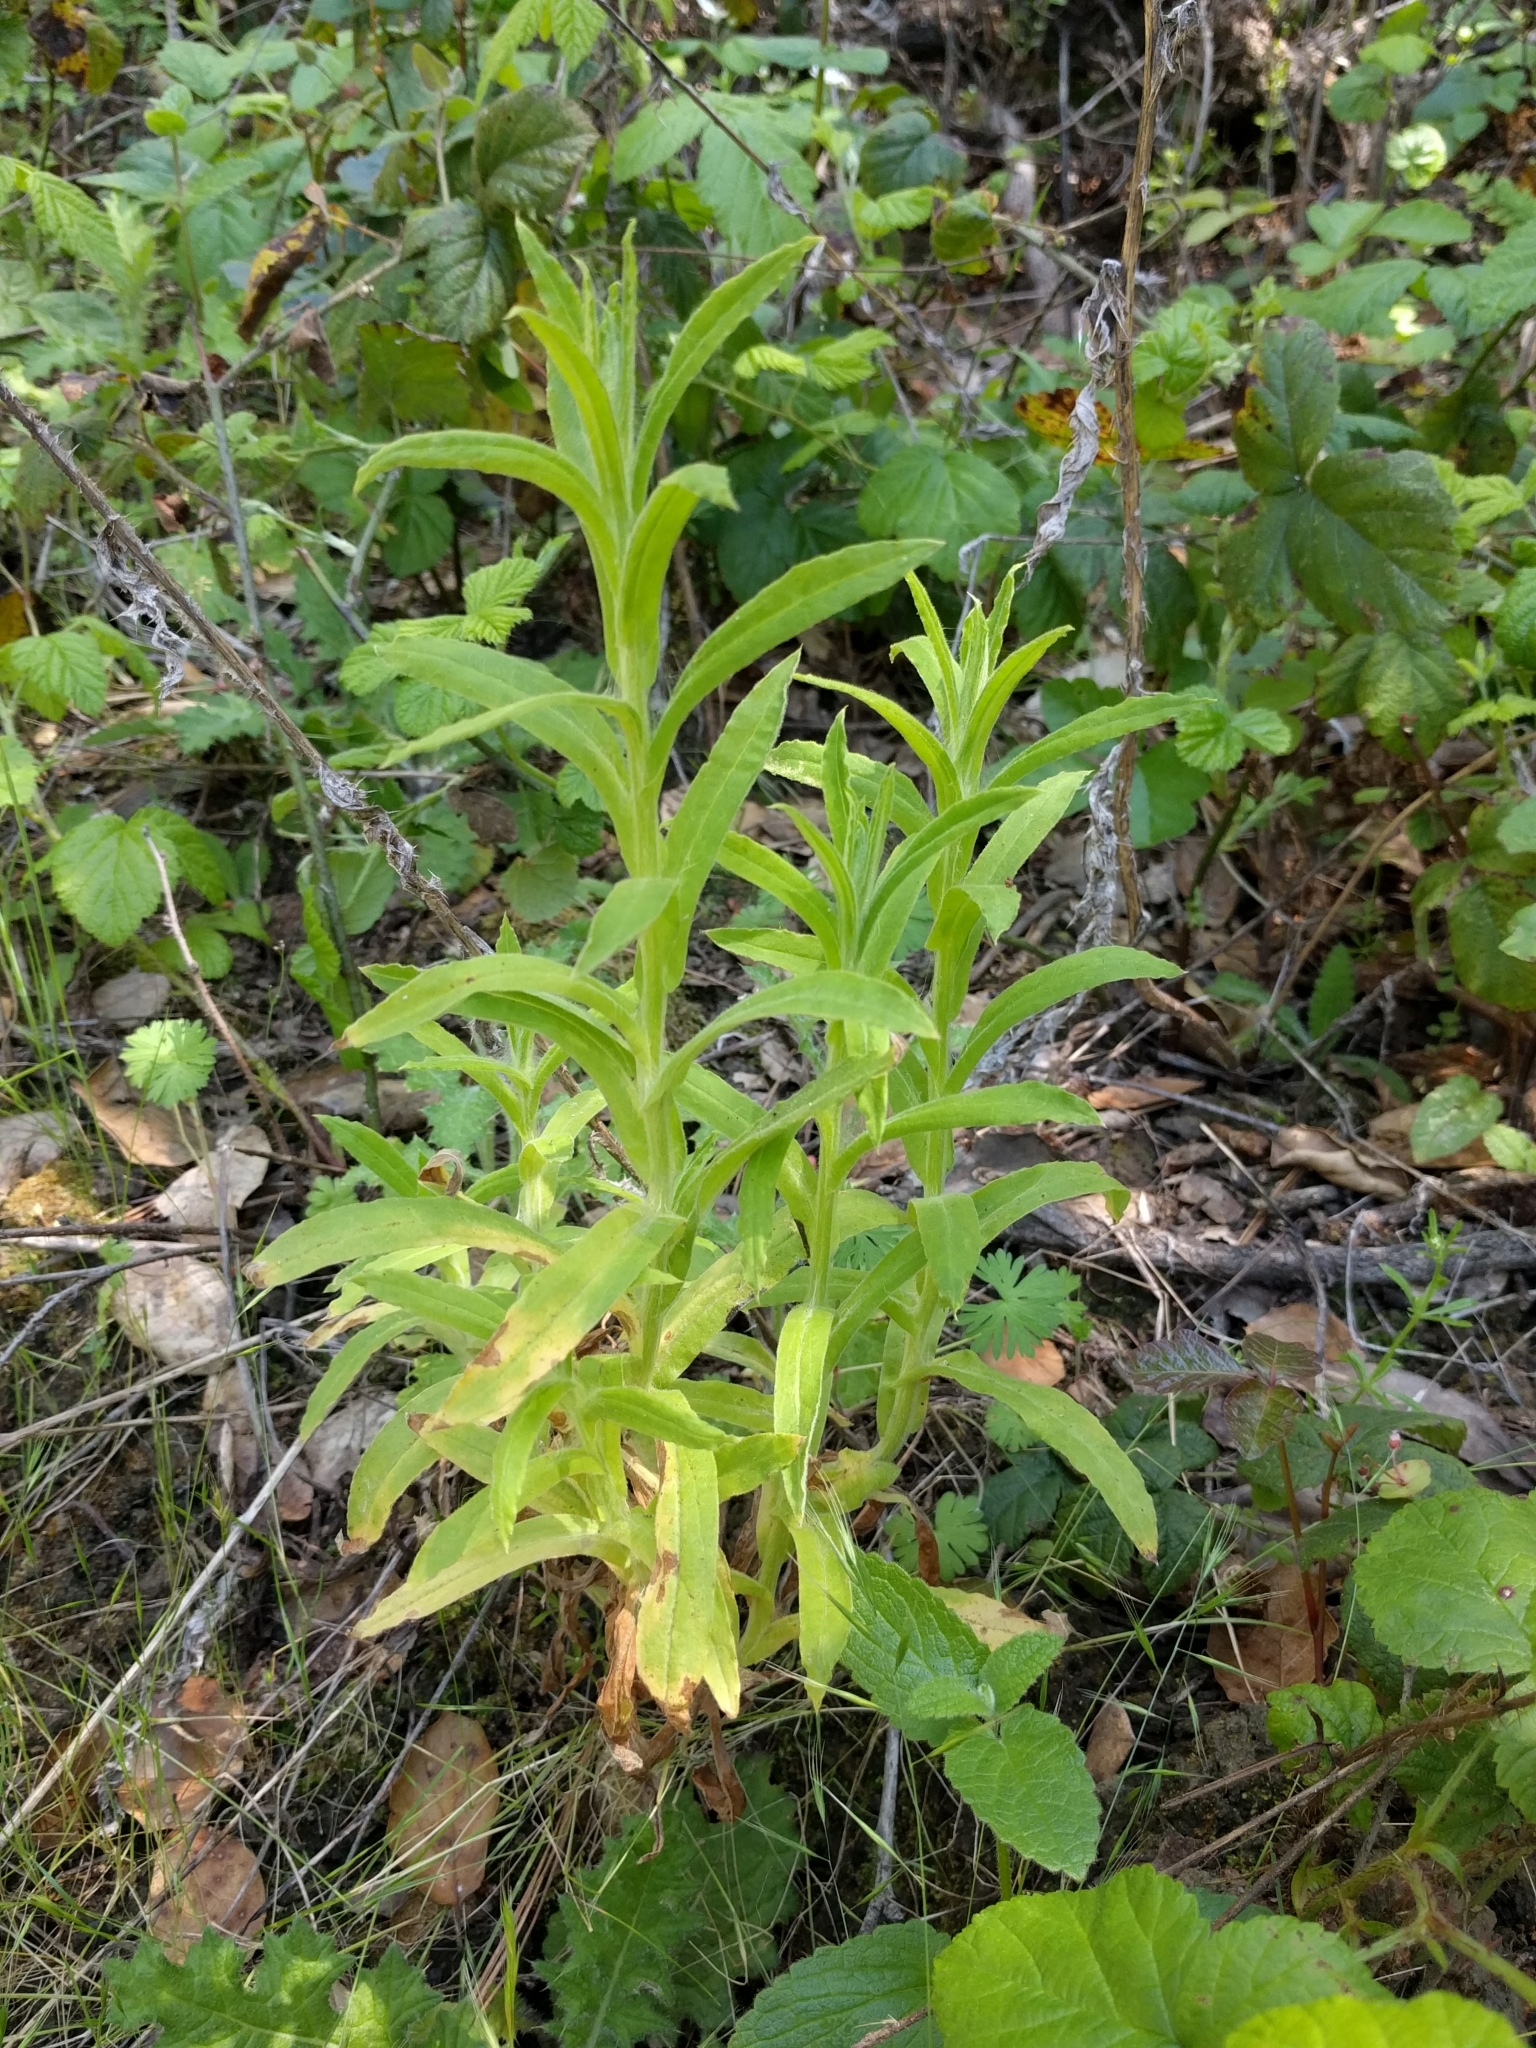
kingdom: Plantae
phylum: Tracheophyta
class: Magnoliopsida
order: Asterales
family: Asteraceae
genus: Pseudognaphalium
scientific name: Pseudognaphalium californicum
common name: California rabbit-tobacco
